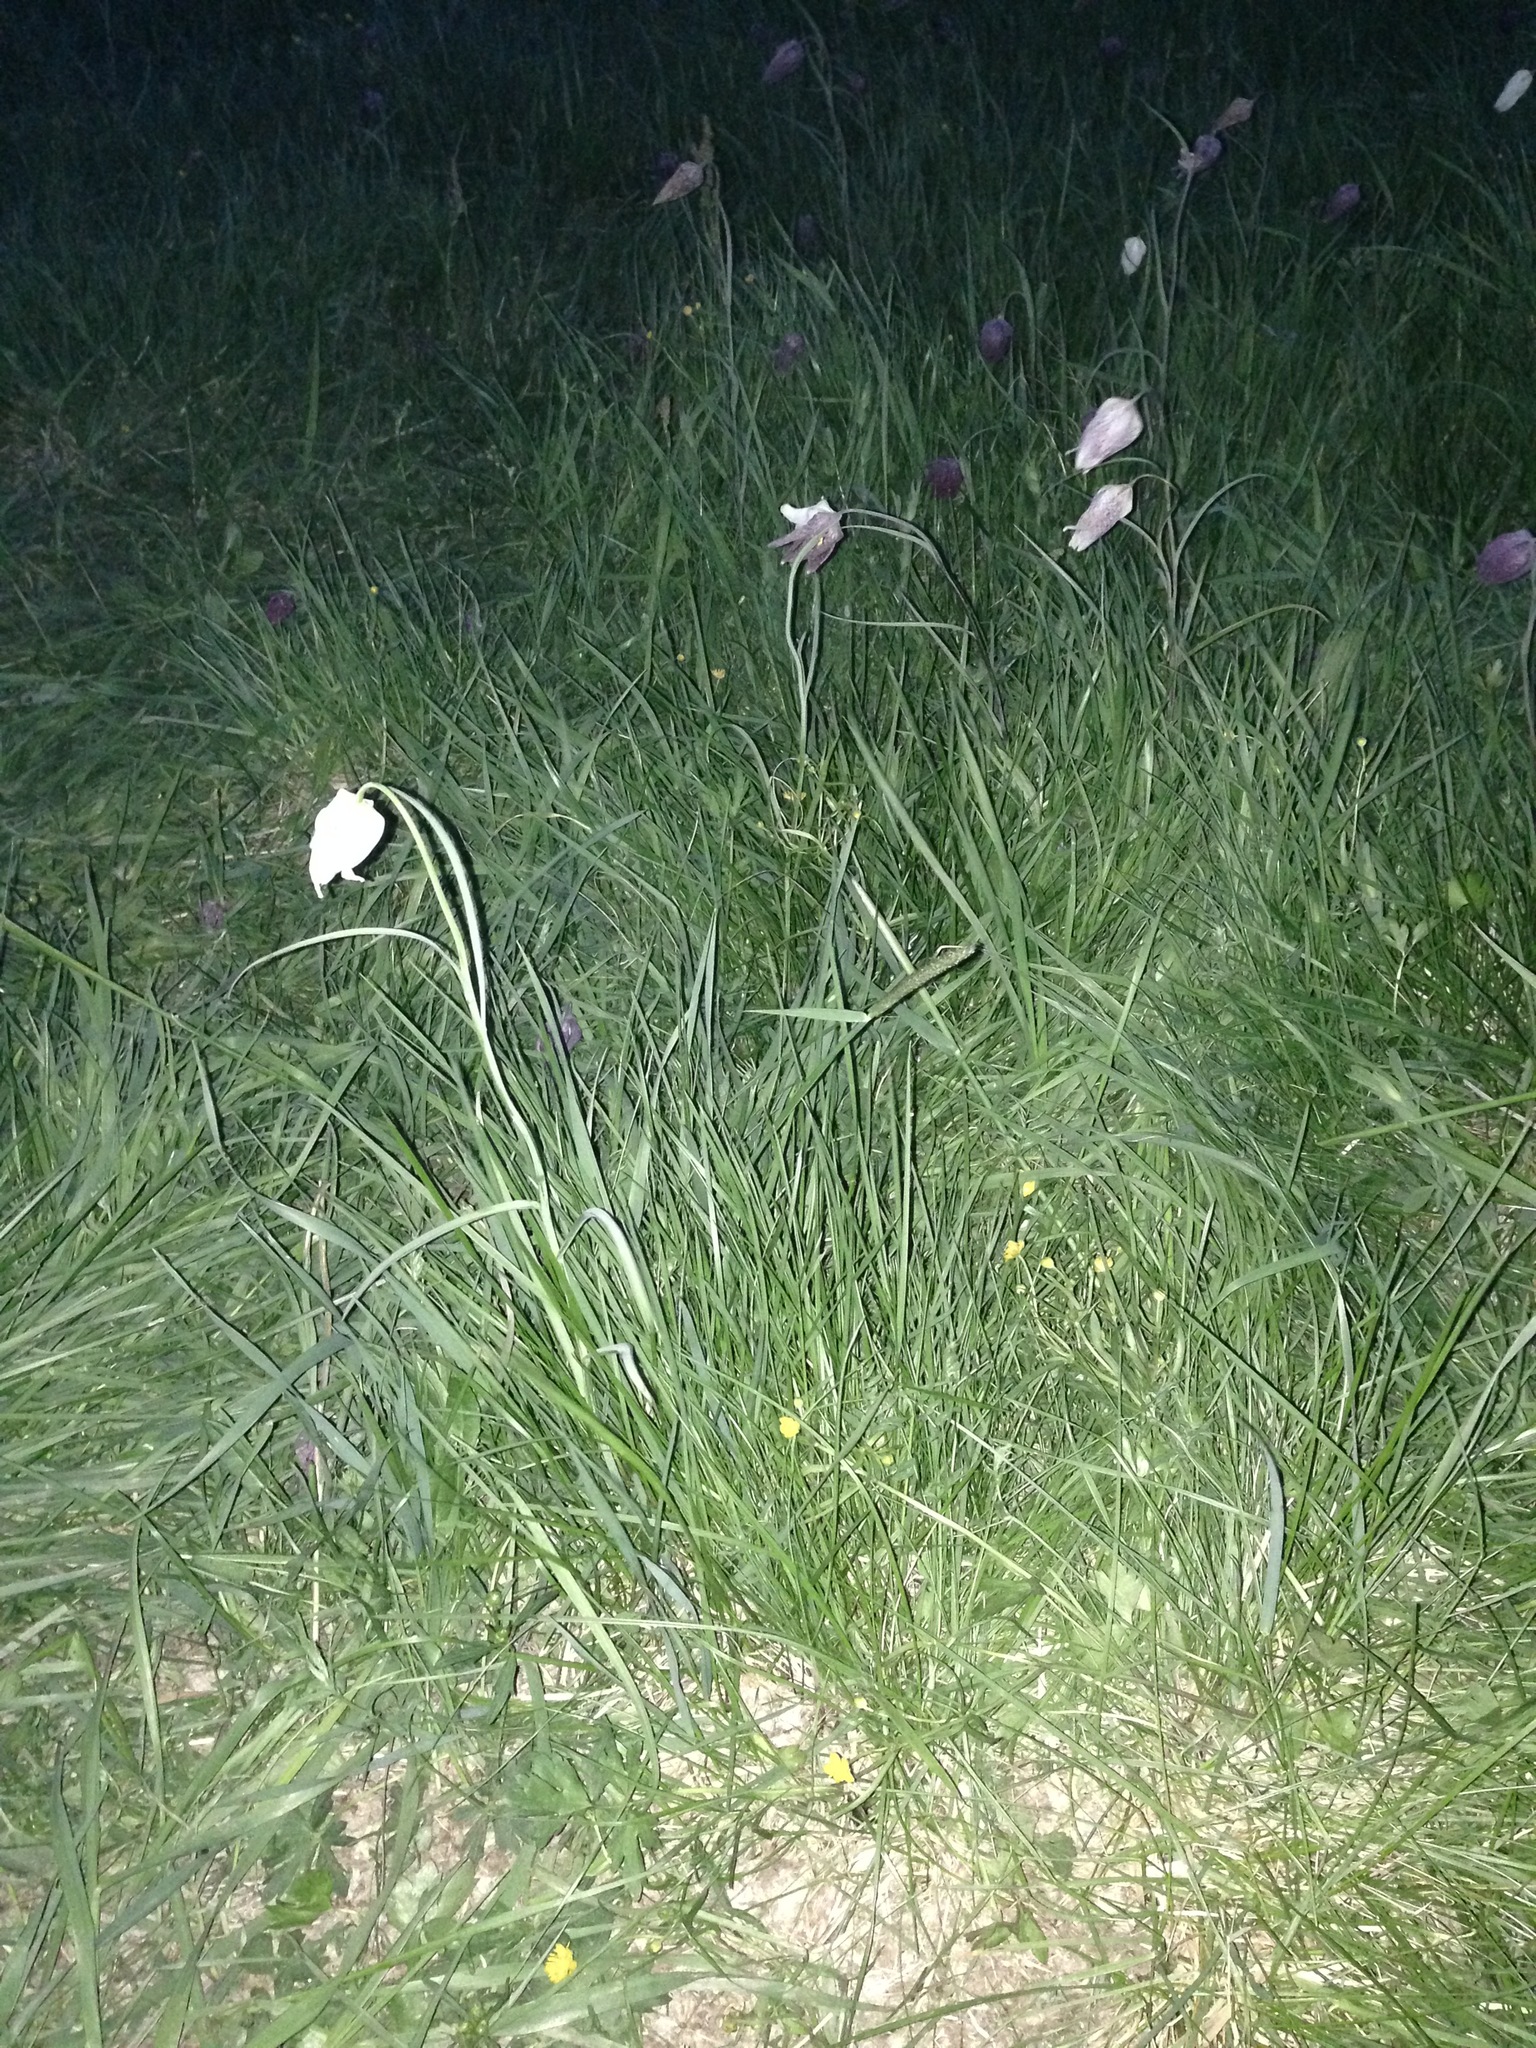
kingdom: Plantae
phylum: Tracheophyta
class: Liliopsida
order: Liliales
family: Liliaceae
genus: Fritillaria
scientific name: Fritillaria meleagris
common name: Fritillary
